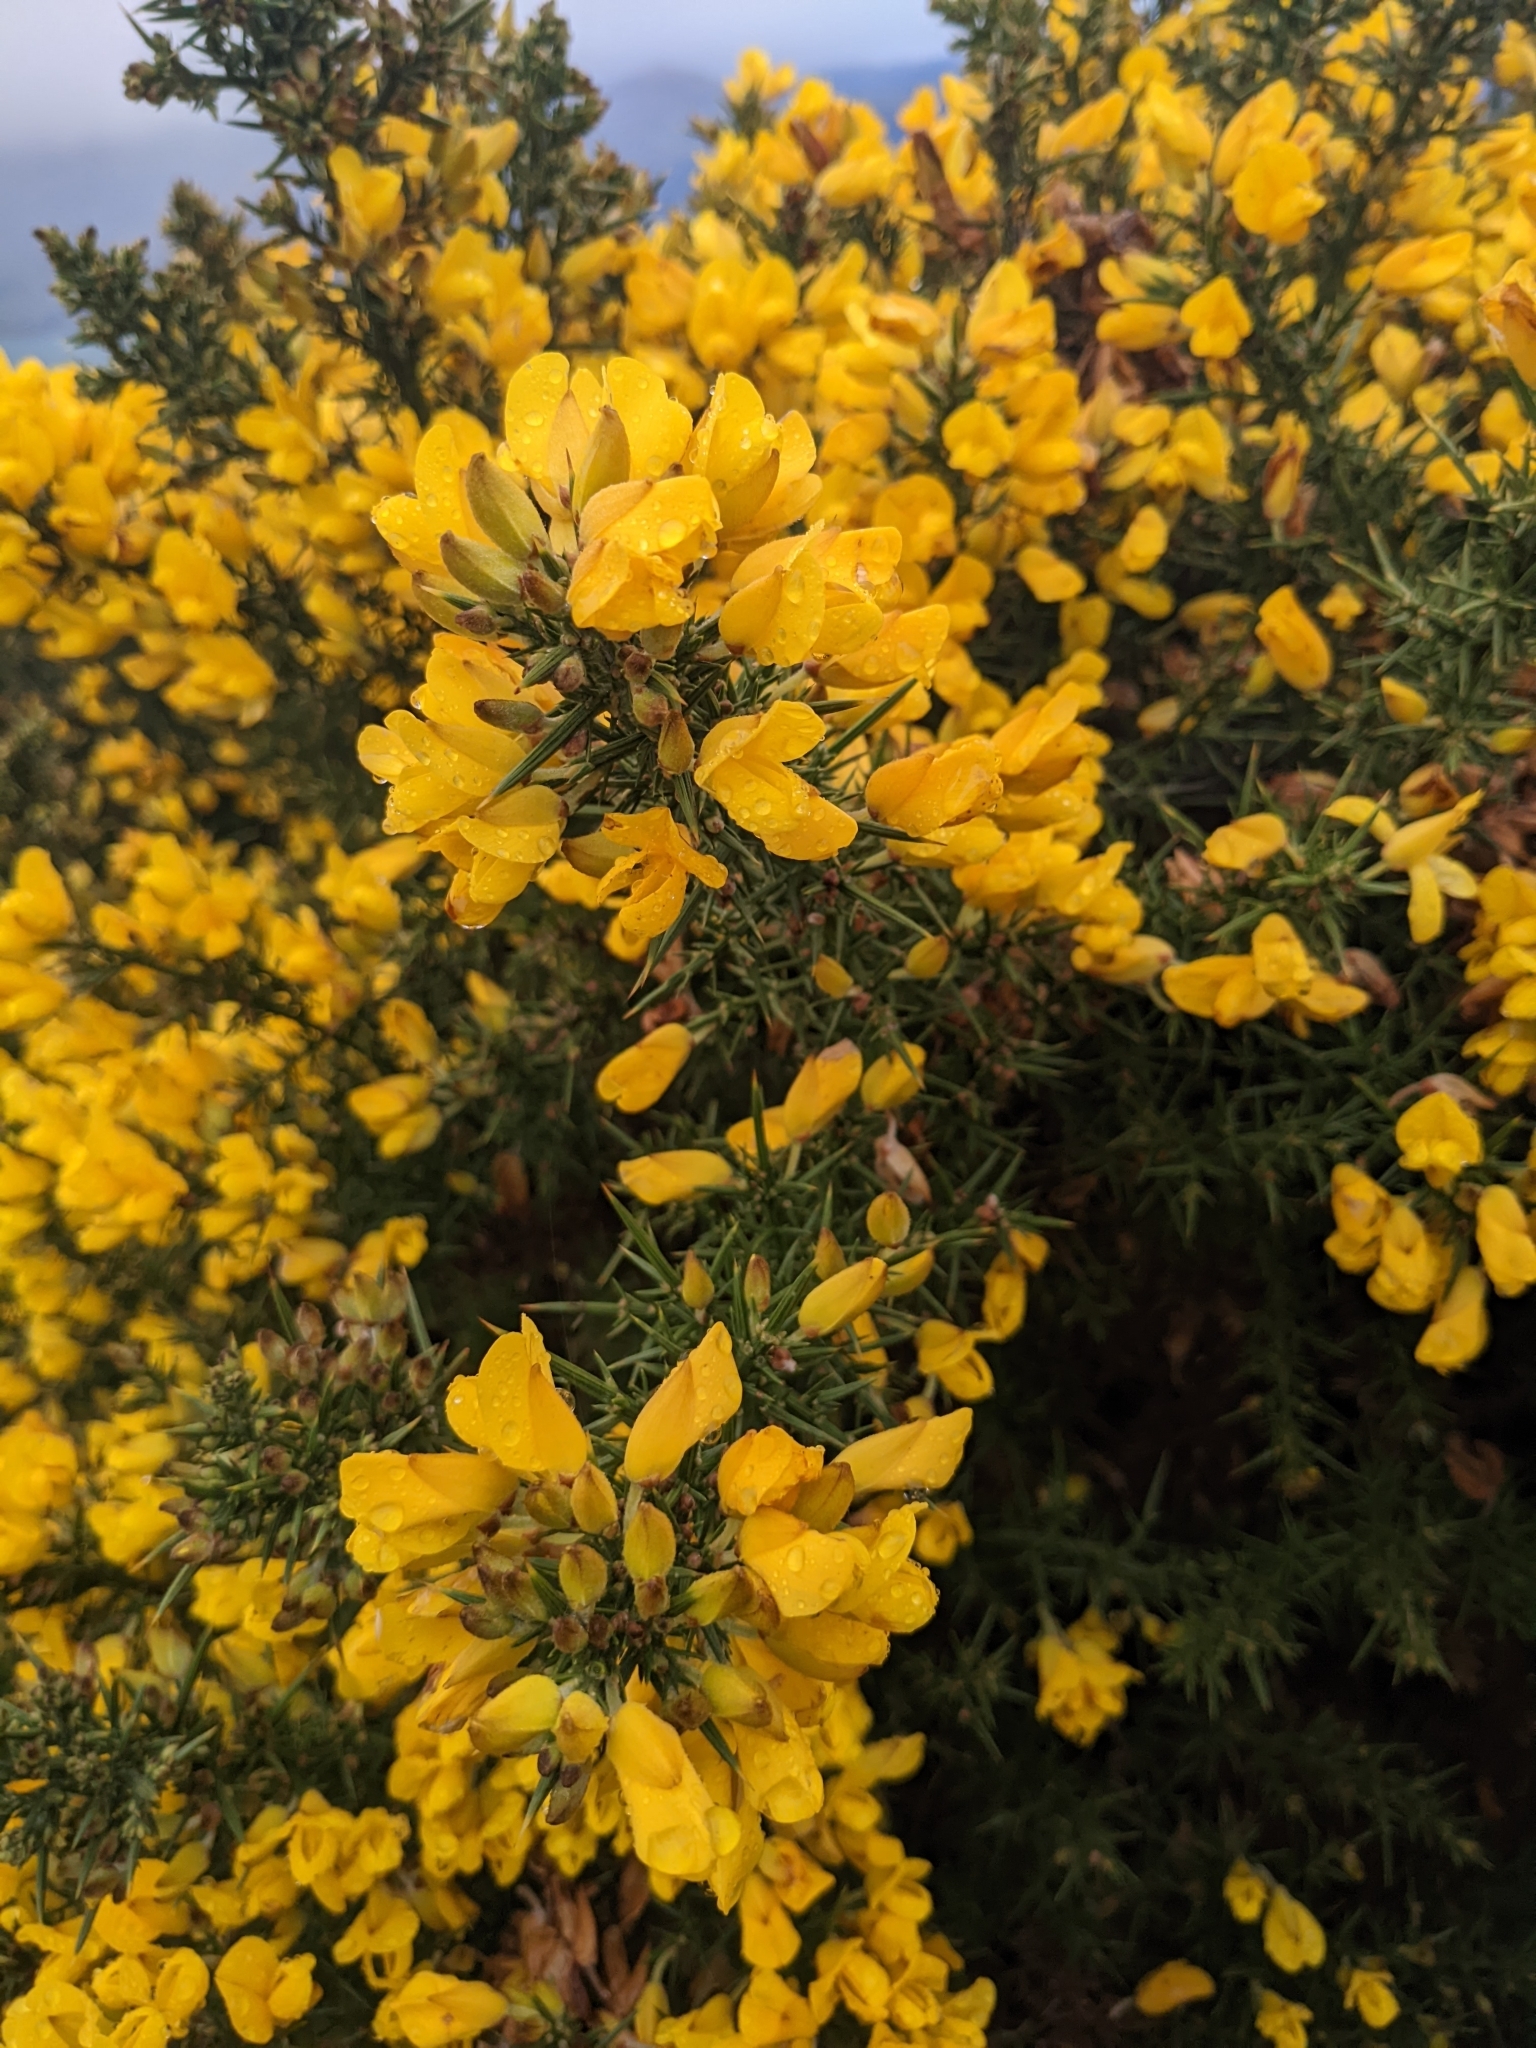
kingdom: Plantae
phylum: Tracheophyta
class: Magnoliopsida
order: Fabales
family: Fabaceae
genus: Ulex
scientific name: Ulex europaeus
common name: Common gorse
